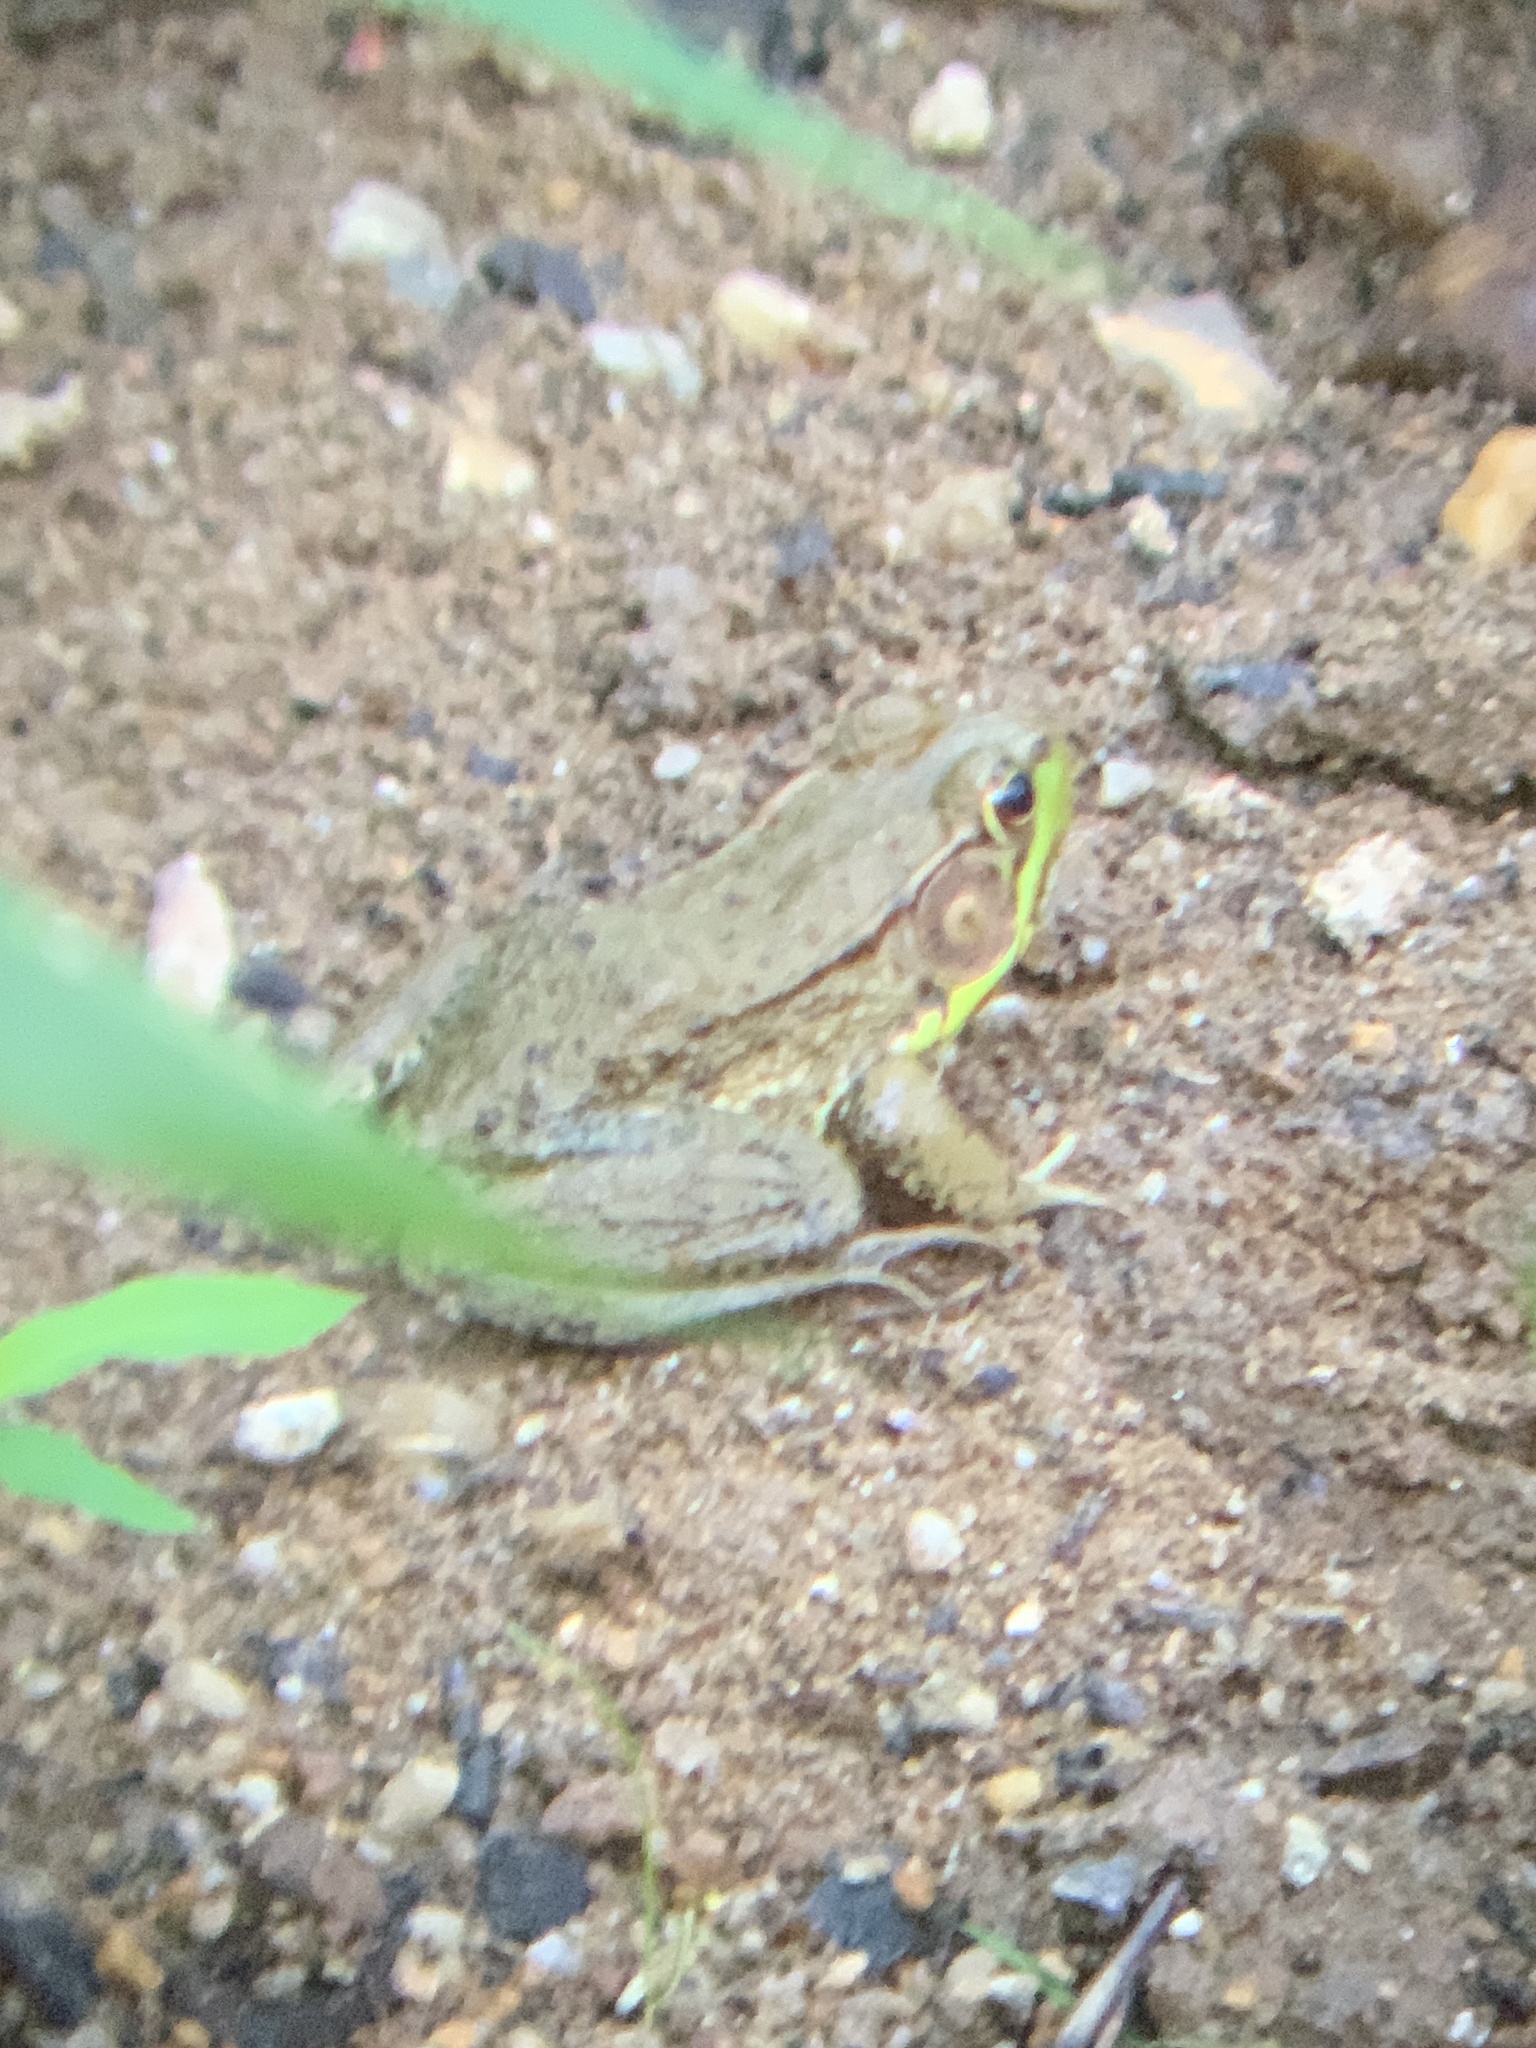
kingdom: Animalia
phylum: Chordata
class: Amphibia
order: Anura
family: Ranidae
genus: Lithobates
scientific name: Lithobates clamitans
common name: Green frog
